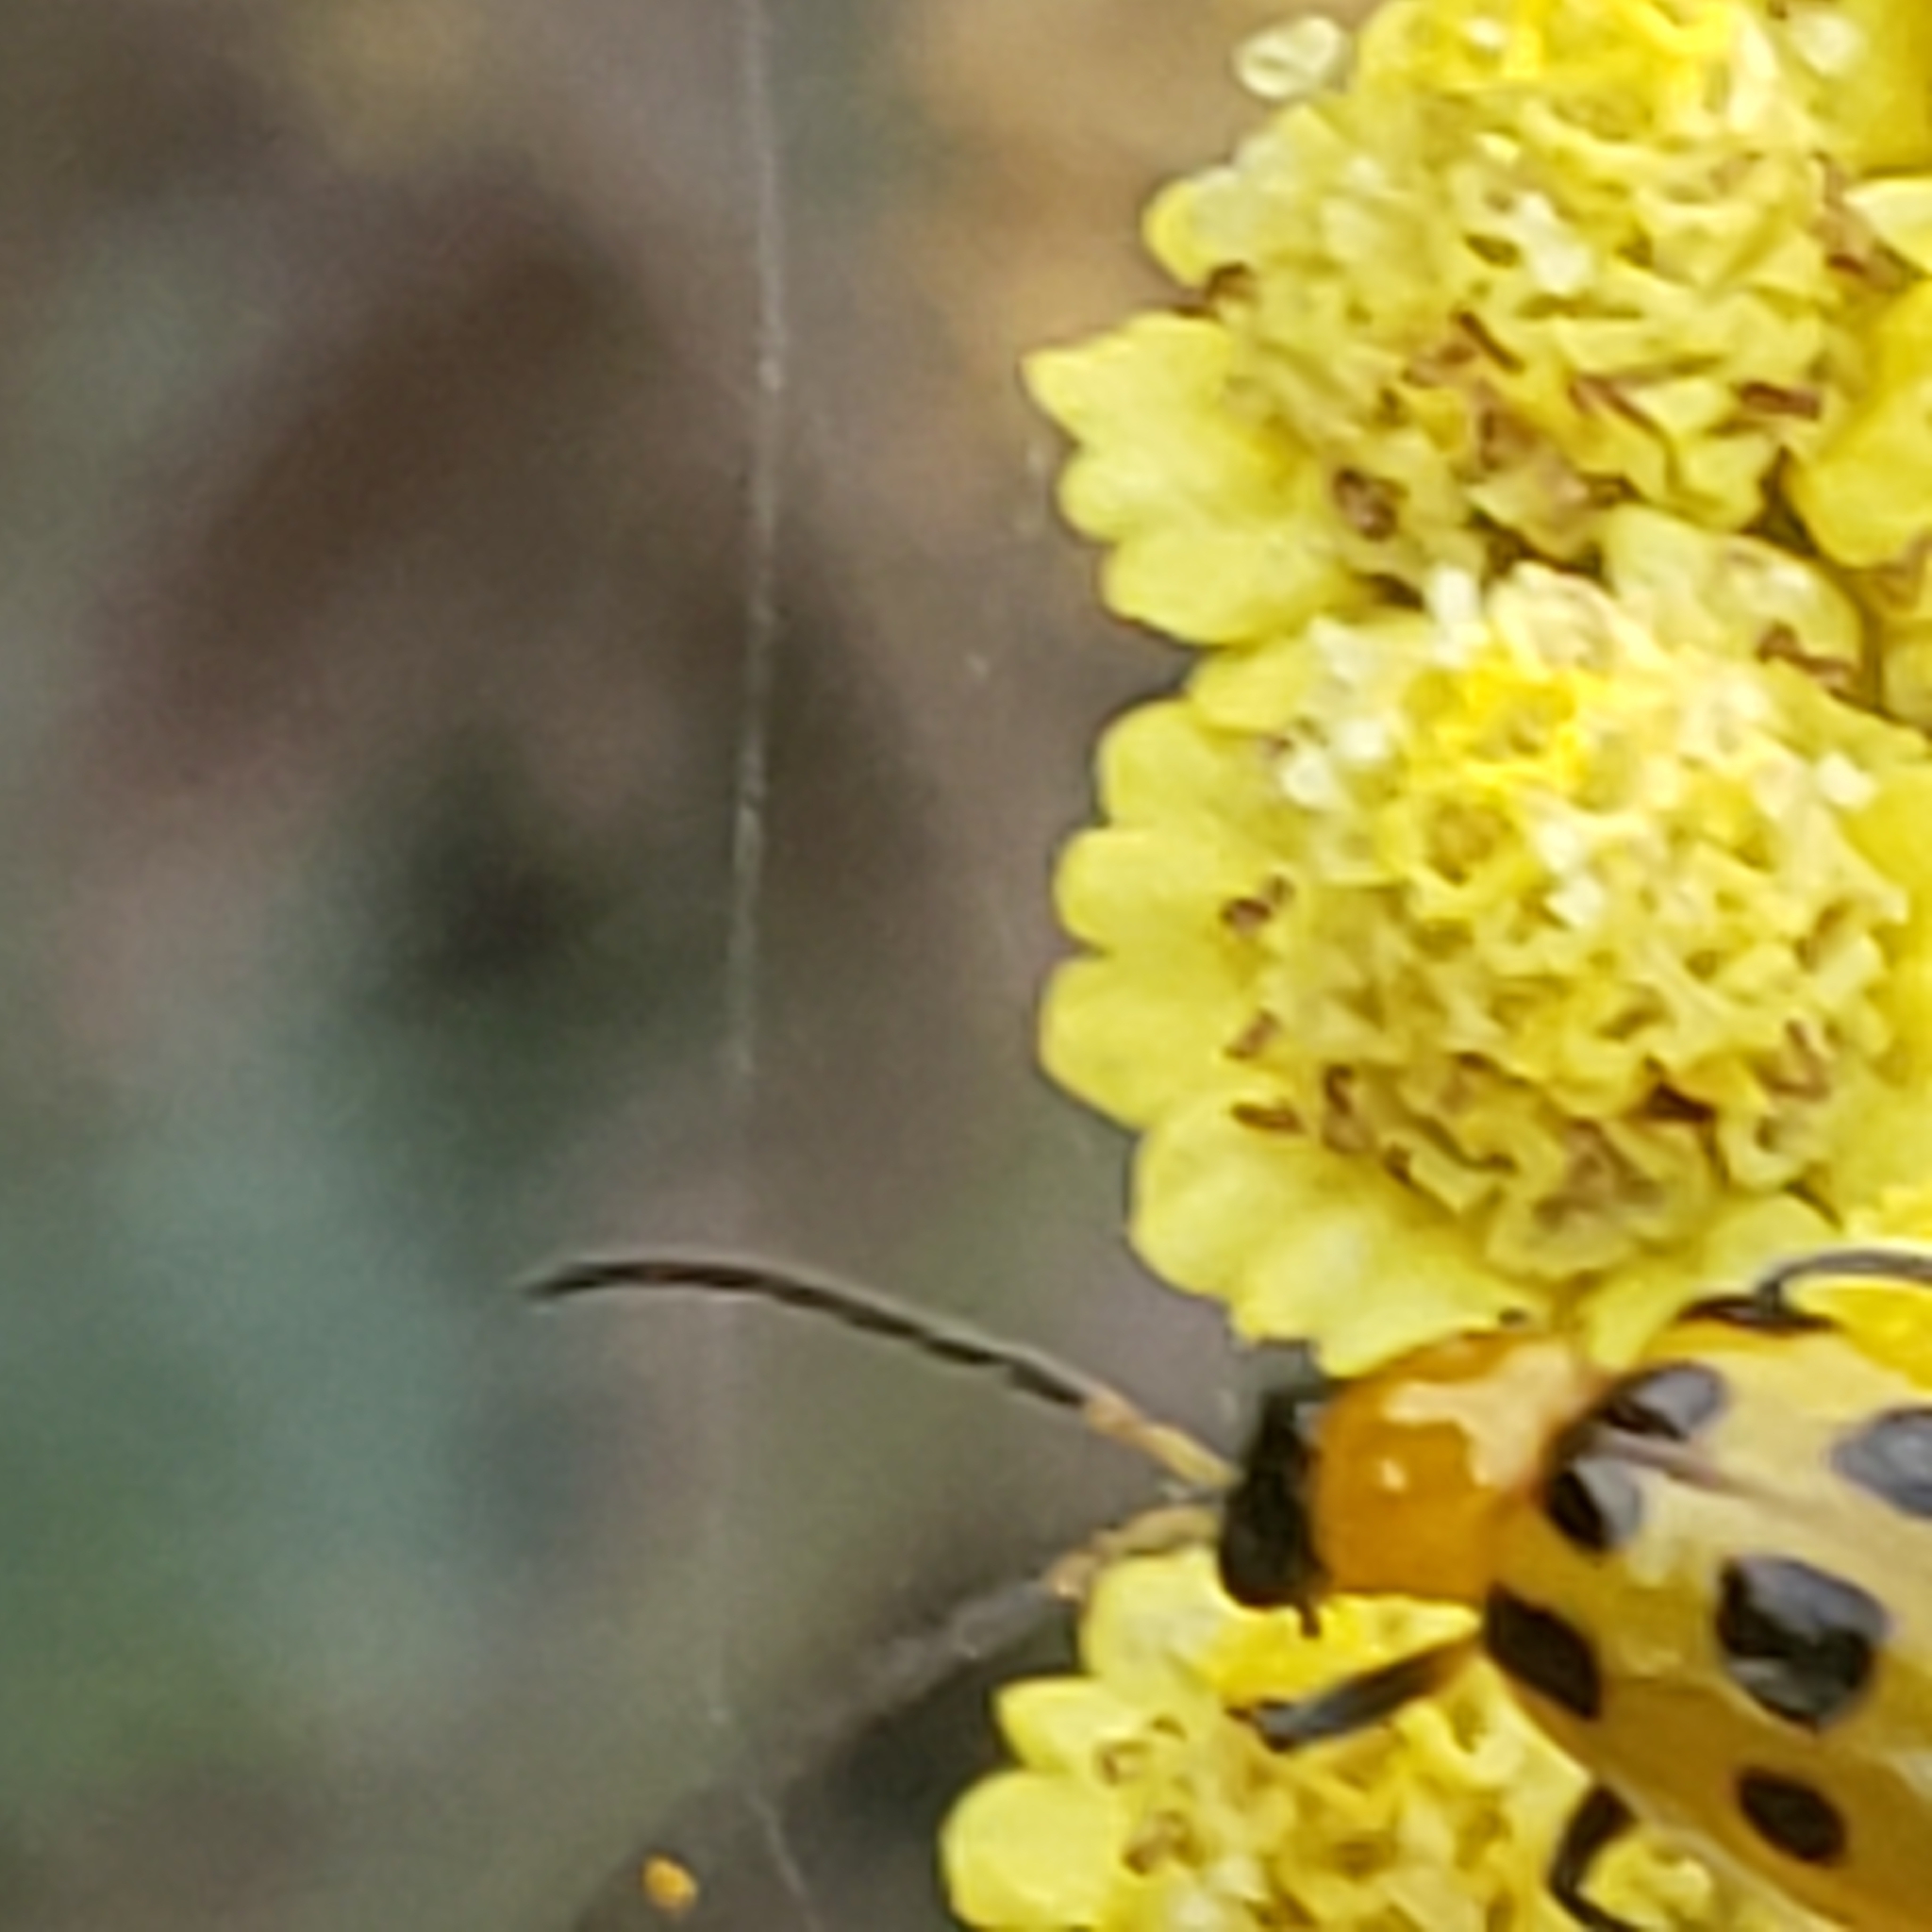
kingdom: Animalia
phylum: Arthropoda
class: Insecta
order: Coleoptera
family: Chrysomelidae
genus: Diabrotica
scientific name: Diabrotica undecimpunctata
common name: Spotted cucumber beetle
